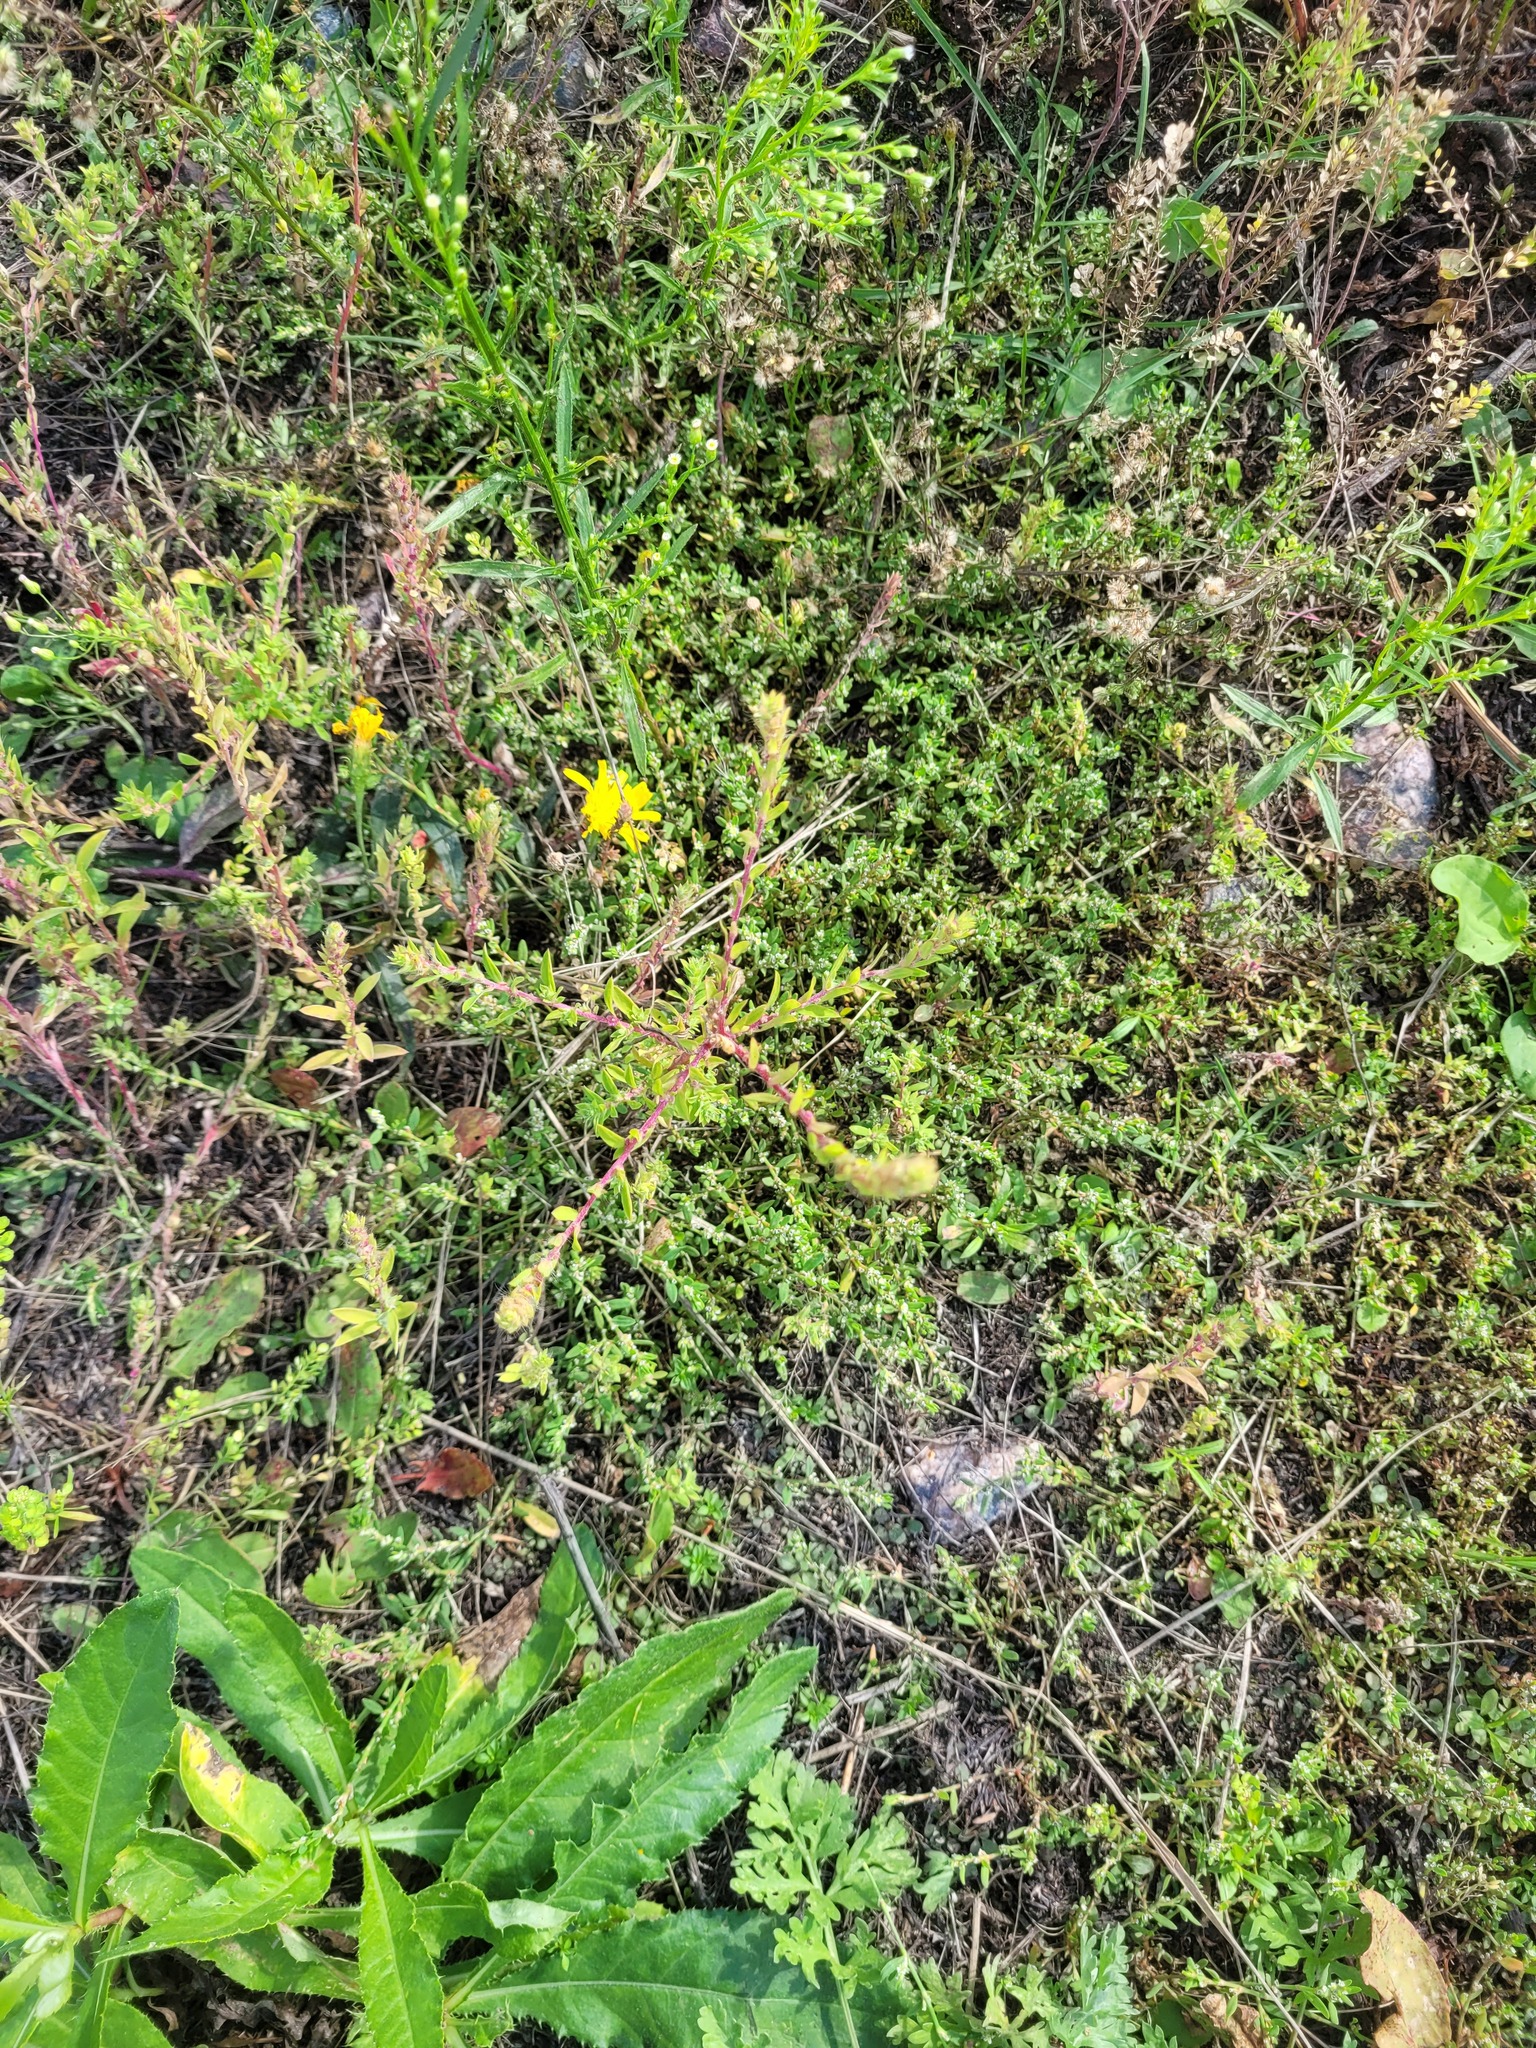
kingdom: Plantae
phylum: Tracheophyta
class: Magnoliopsida
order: Caryophyllales
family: Amaranthaceae
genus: Bassia
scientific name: Bassia scoparia
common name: Belvedere
